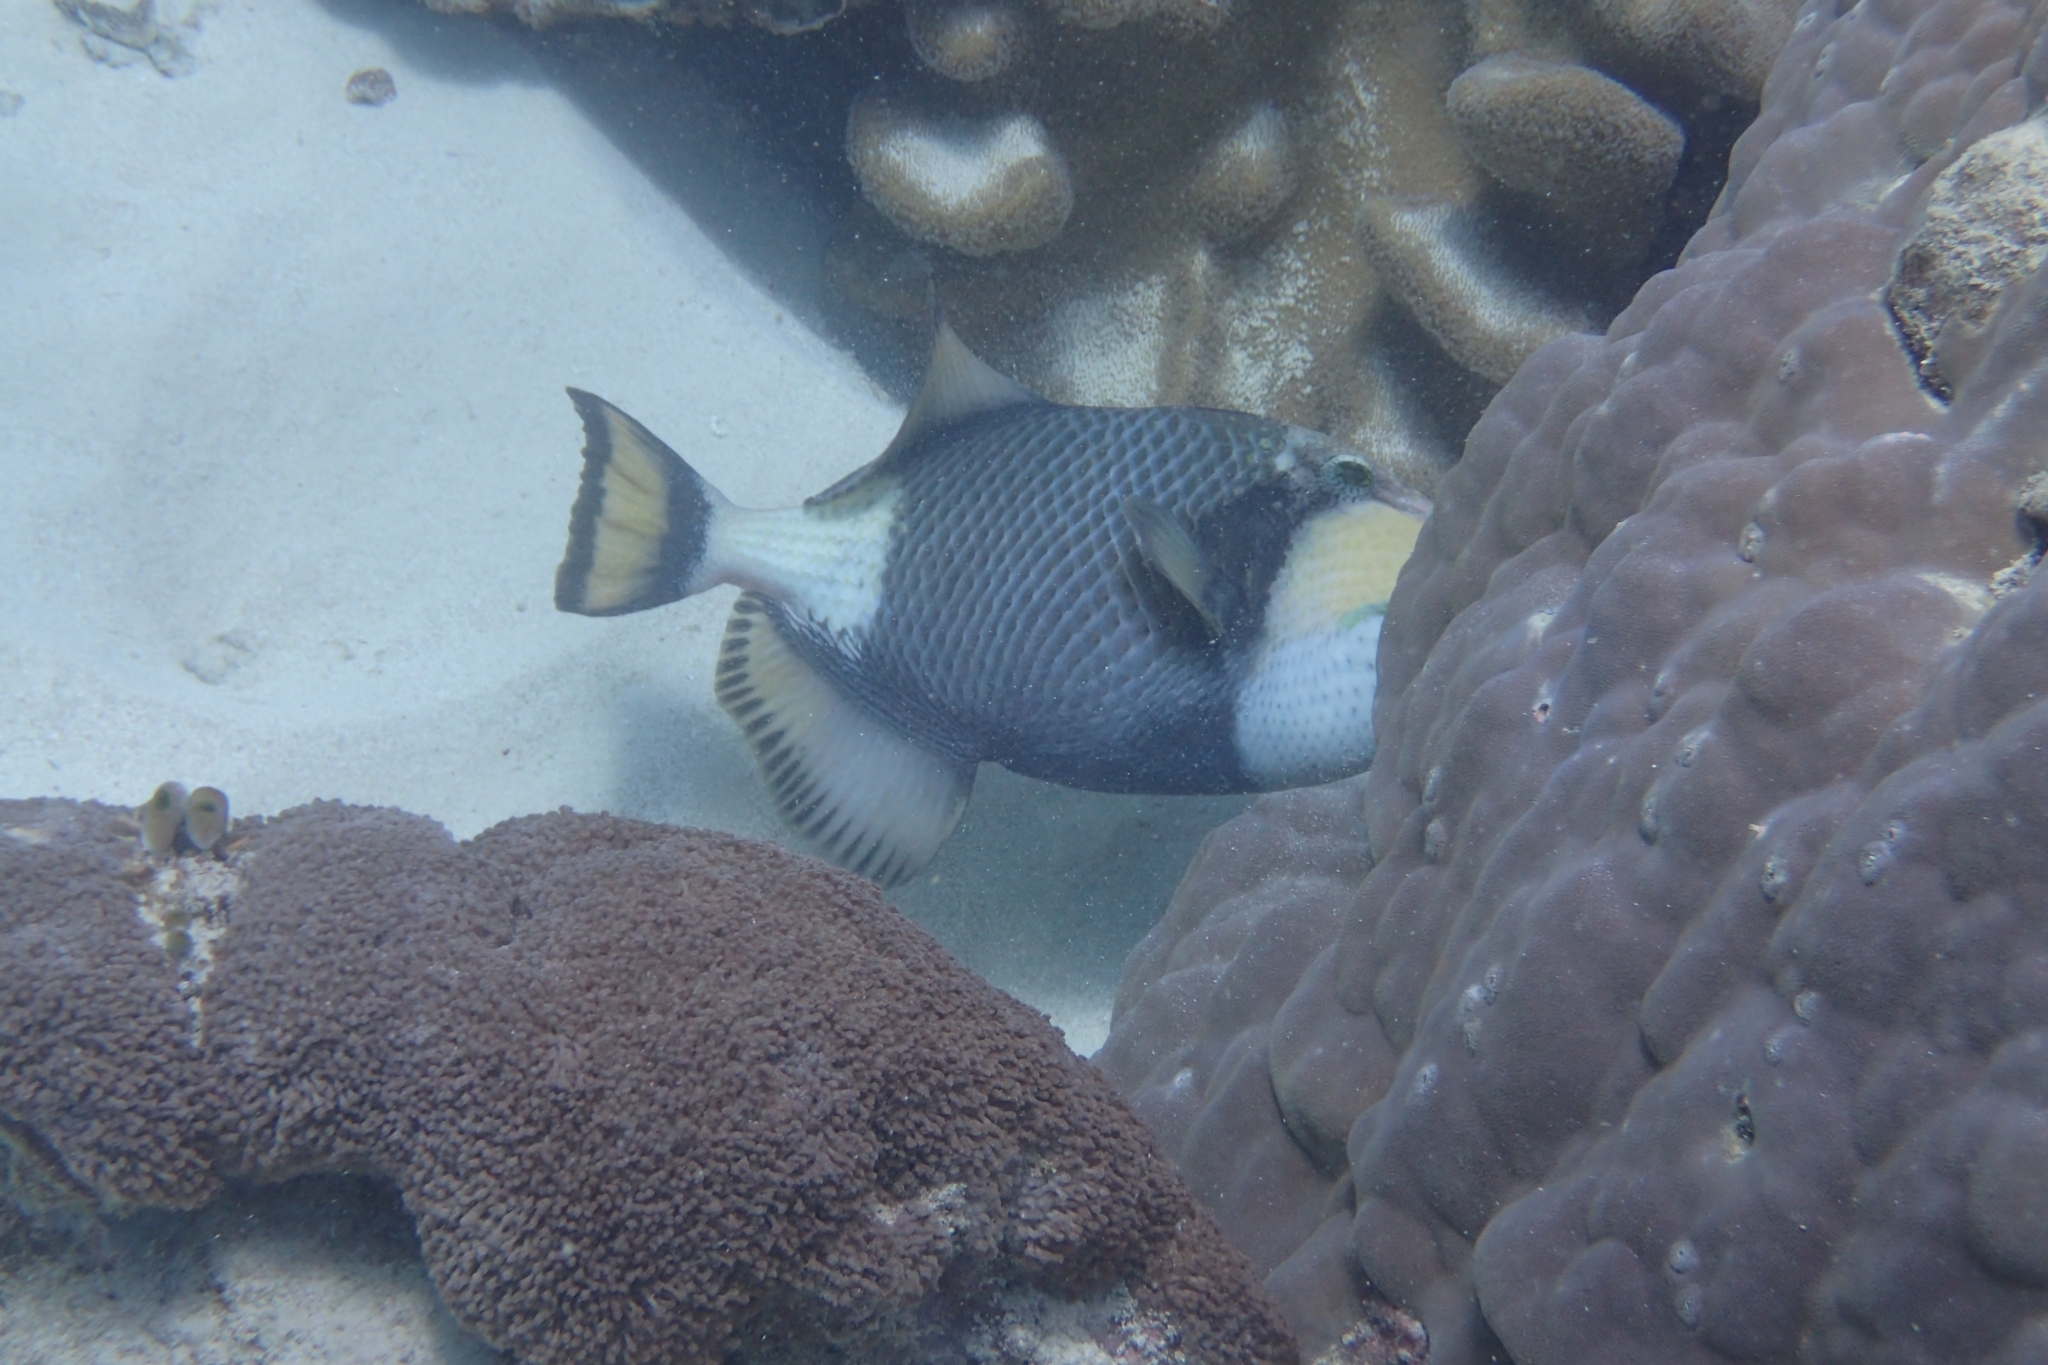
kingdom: Animalia
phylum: Chordata
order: Tetraodontiformes
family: Balistidae
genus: Balistoides
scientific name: Balistoides viridescens
